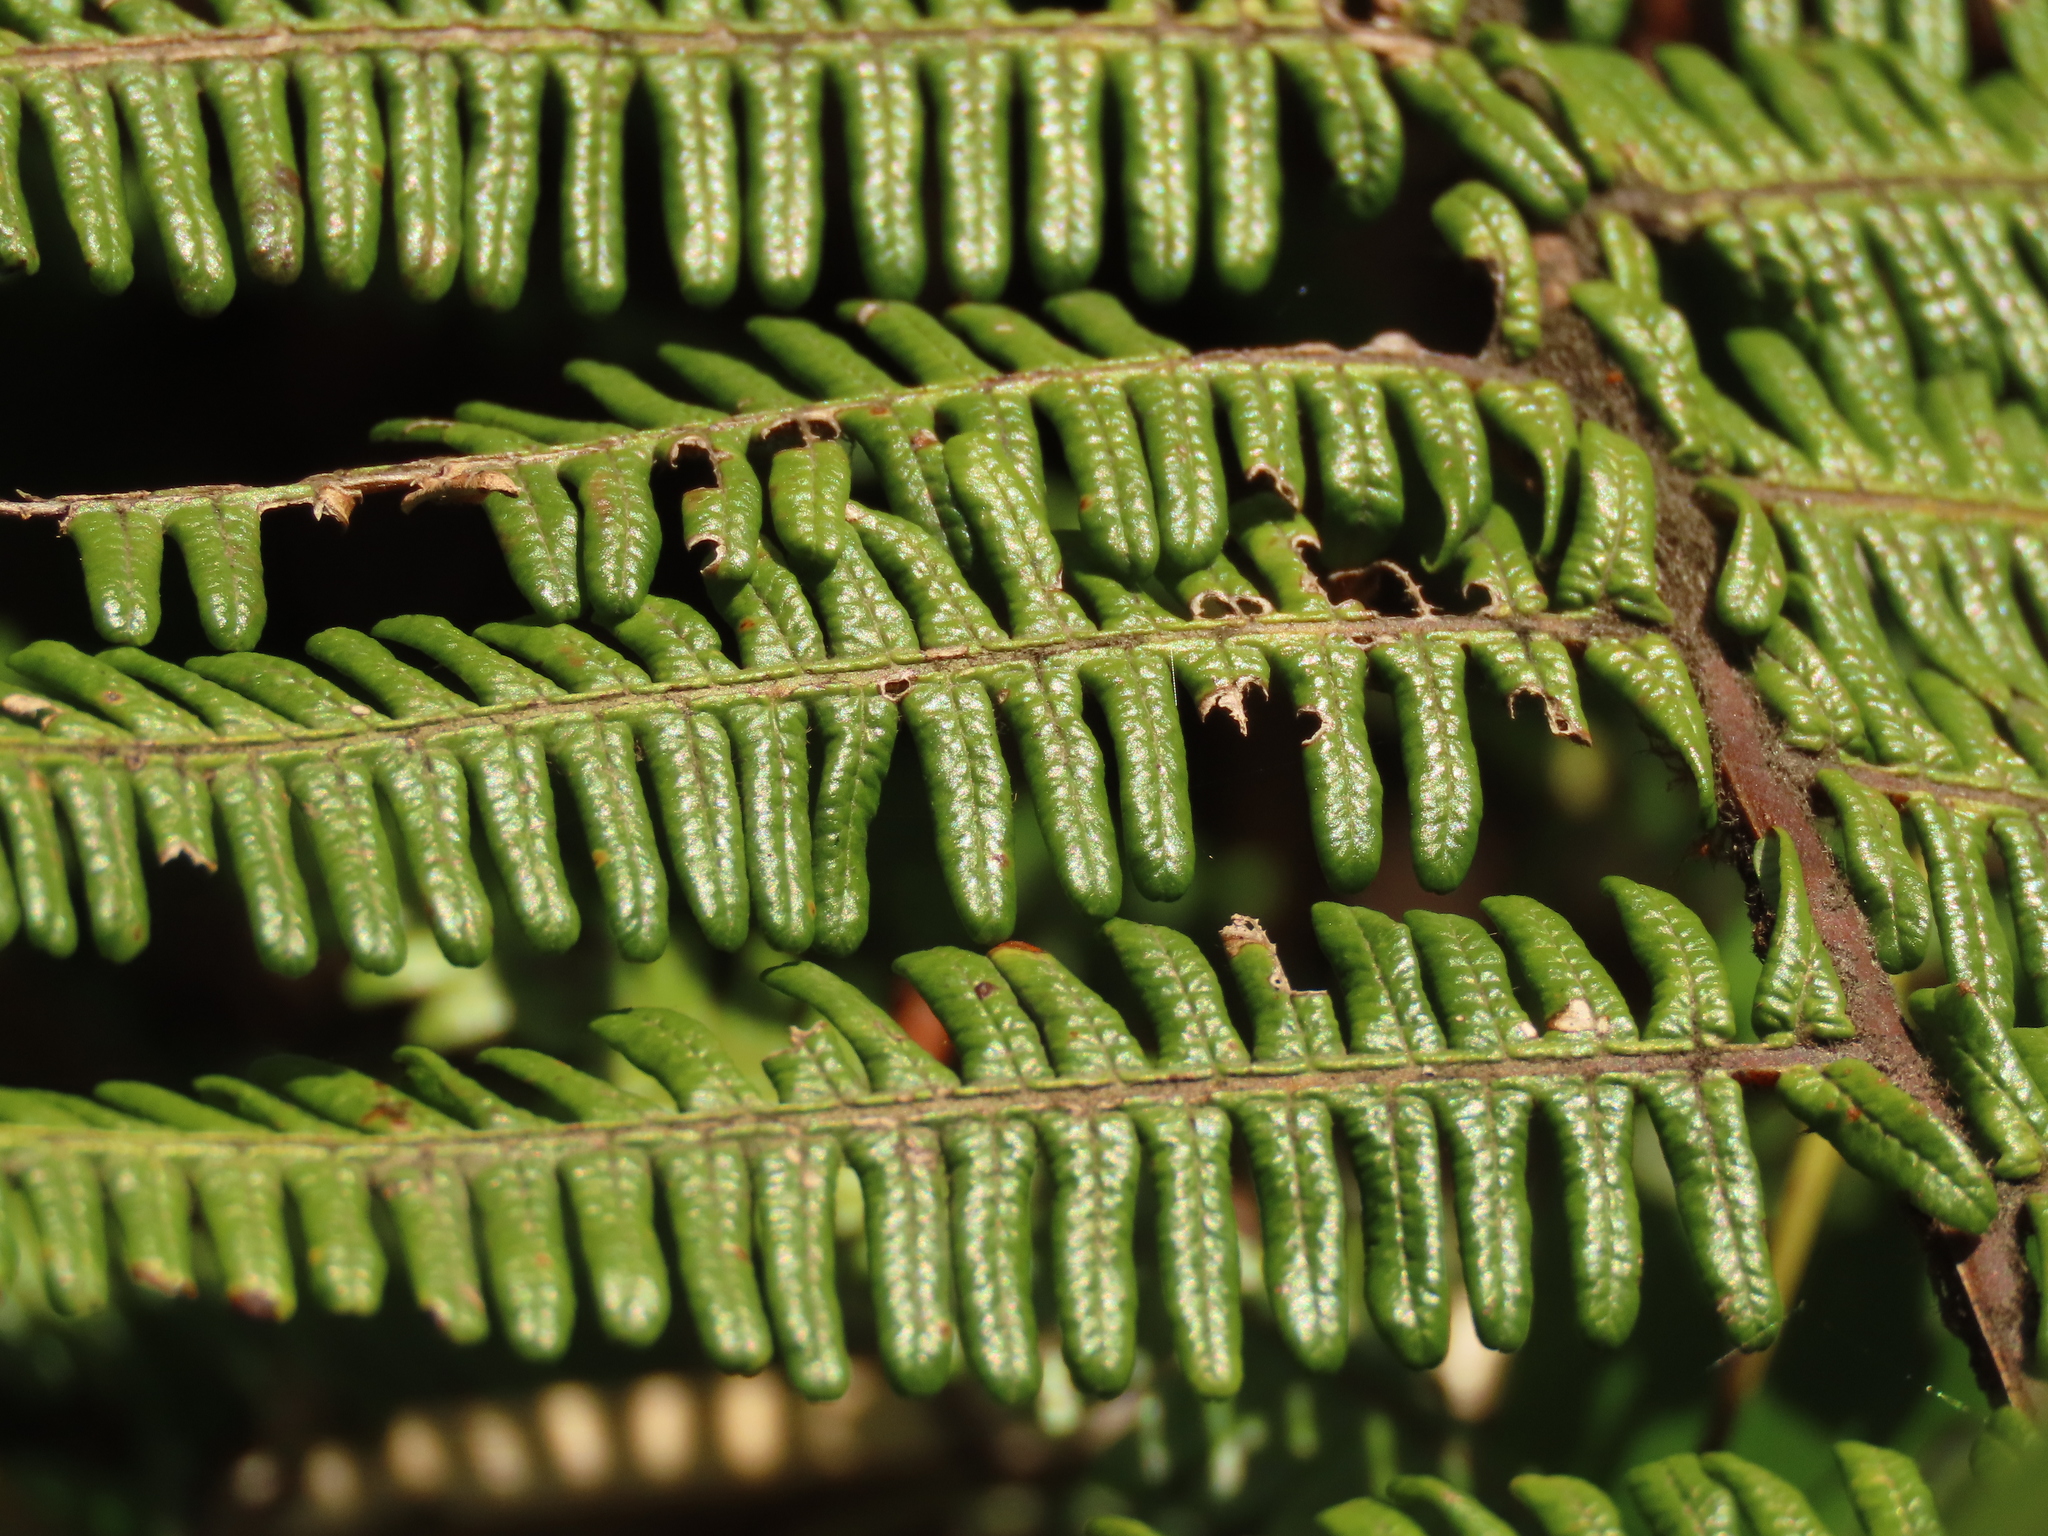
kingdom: Plantae
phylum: Tracheophyta
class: Polypodiopsida
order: Gleicheniales
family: Gleicheniaceae
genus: Diplopterygium
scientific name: Diplopterygium chinense
